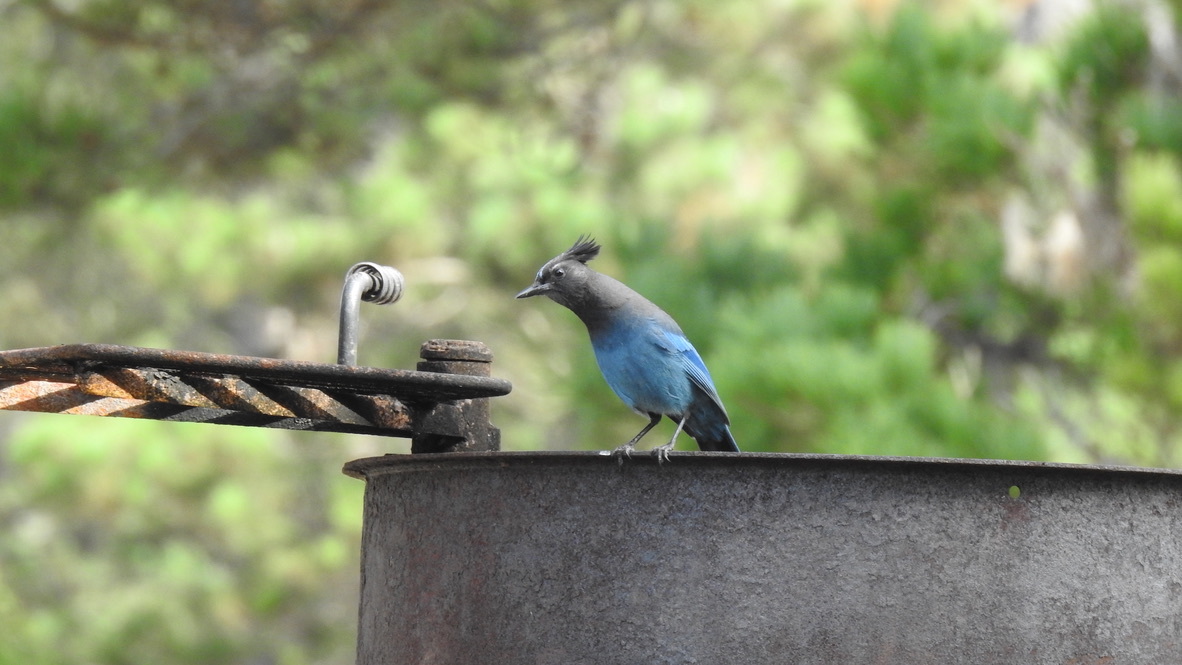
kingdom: Animalia
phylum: Chordata
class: Aves
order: Passeriformes
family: Corvidae
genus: Cyanocitta
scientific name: Cyanocitta stelleri
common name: Steller's jay
